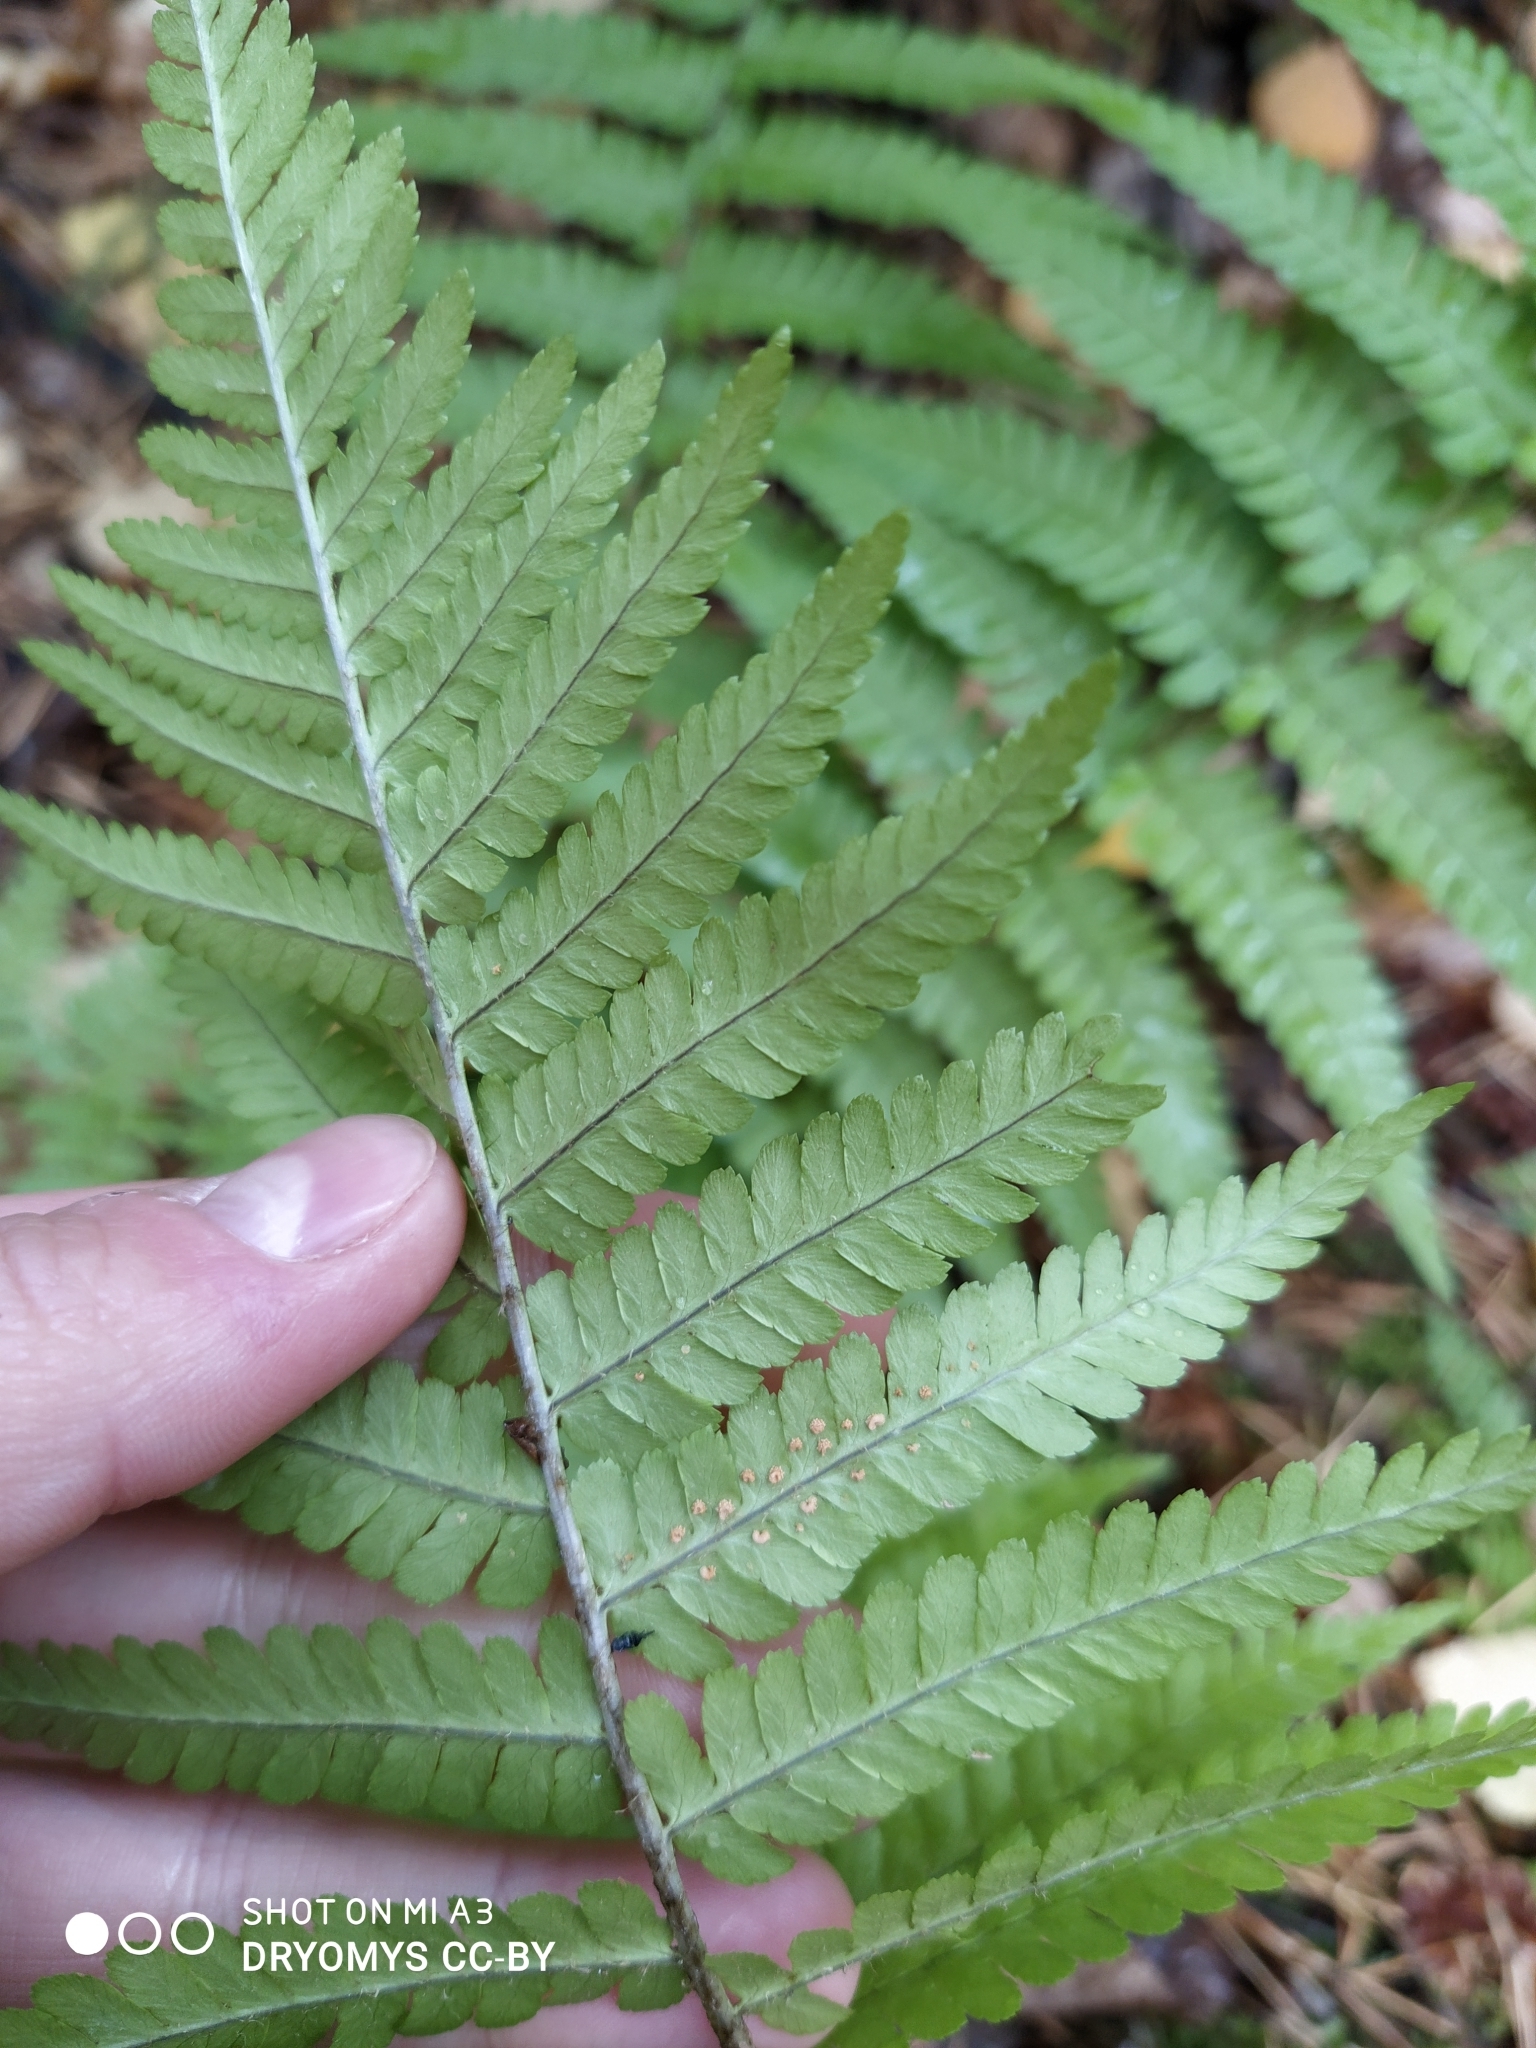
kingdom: Plantae
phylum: Tracheophyta
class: Polypodiopsida
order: Polypodiales
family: Dryopteridaceae
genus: Dryopteris
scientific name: Dryopteris filix-mas
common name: Male fern
